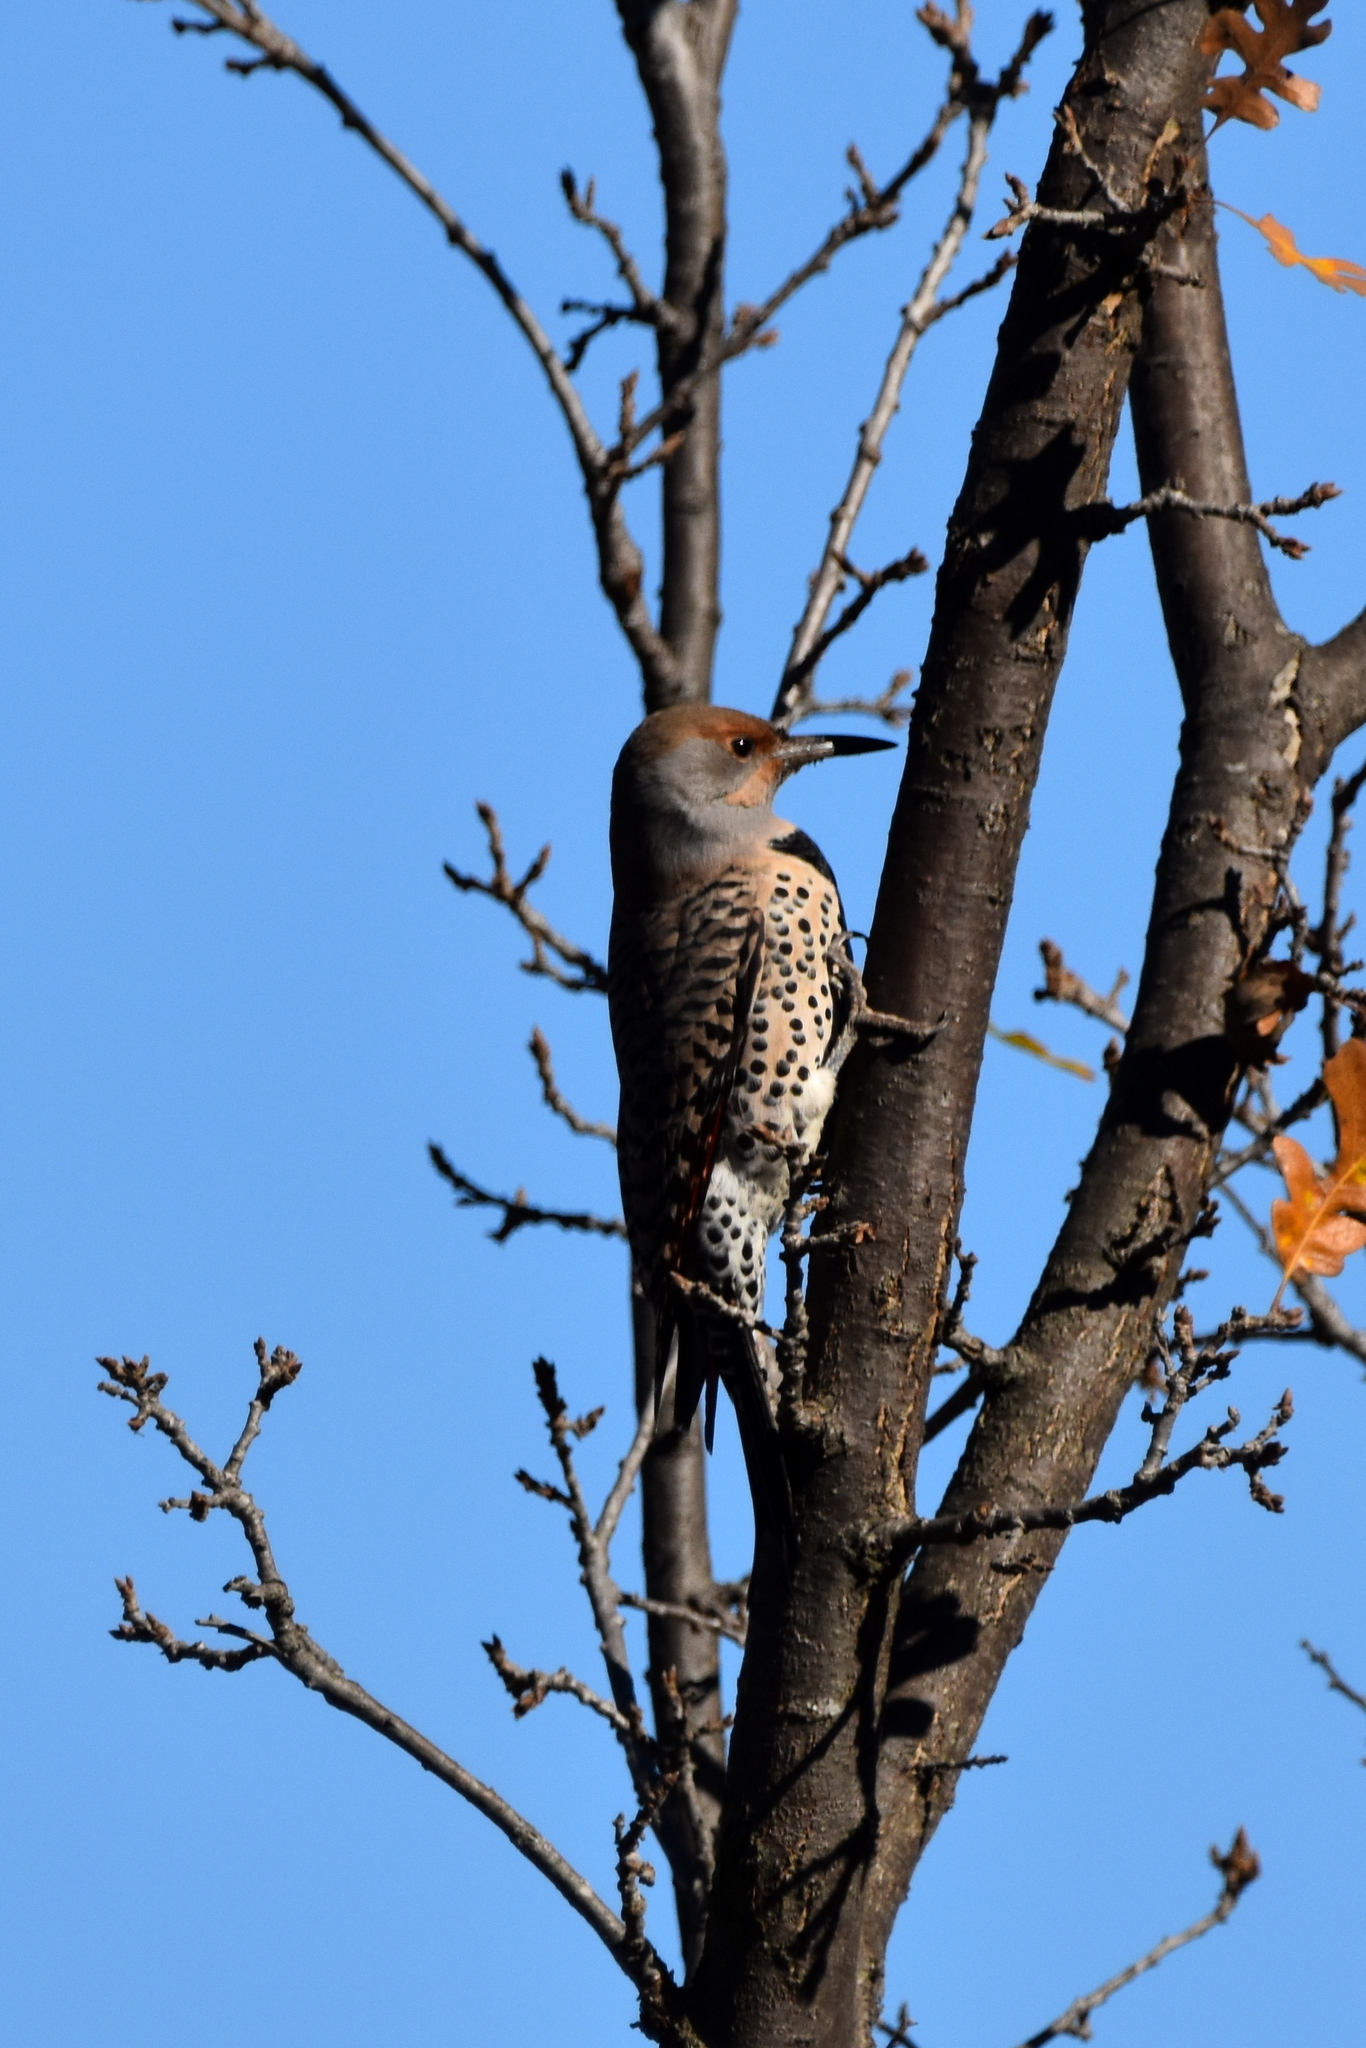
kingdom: Animalia
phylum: Chordata
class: Aves
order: Piciformes
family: Picidae
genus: Colaptes
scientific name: Colaptes auratus
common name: Northern flicker
